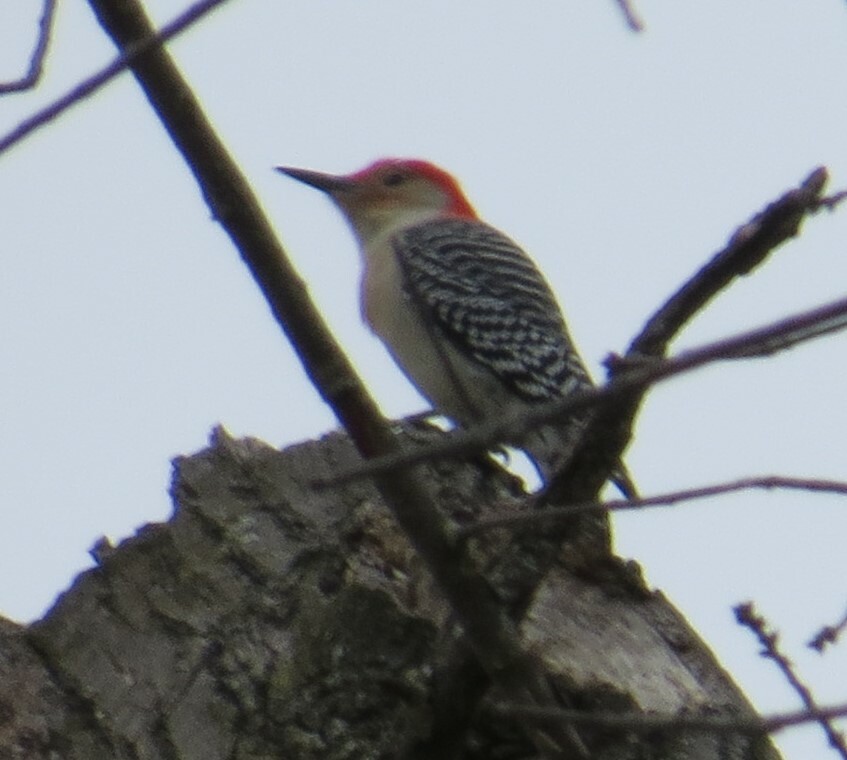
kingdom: Animalia
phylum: Chordata
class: Aves
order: Piciformes
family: Picidae
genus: Melanerpes
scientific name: Melanerpes carolinus
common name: Red-bellied woodpecker
